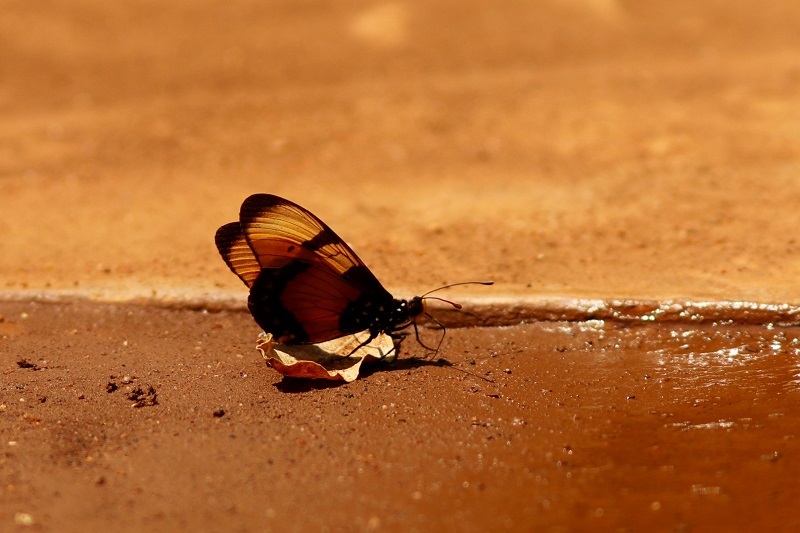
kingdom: Animalia
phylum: Arthropoda
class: Insecta
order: Lepidoptera
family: Nymphalidae
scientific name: Nymphalidae
